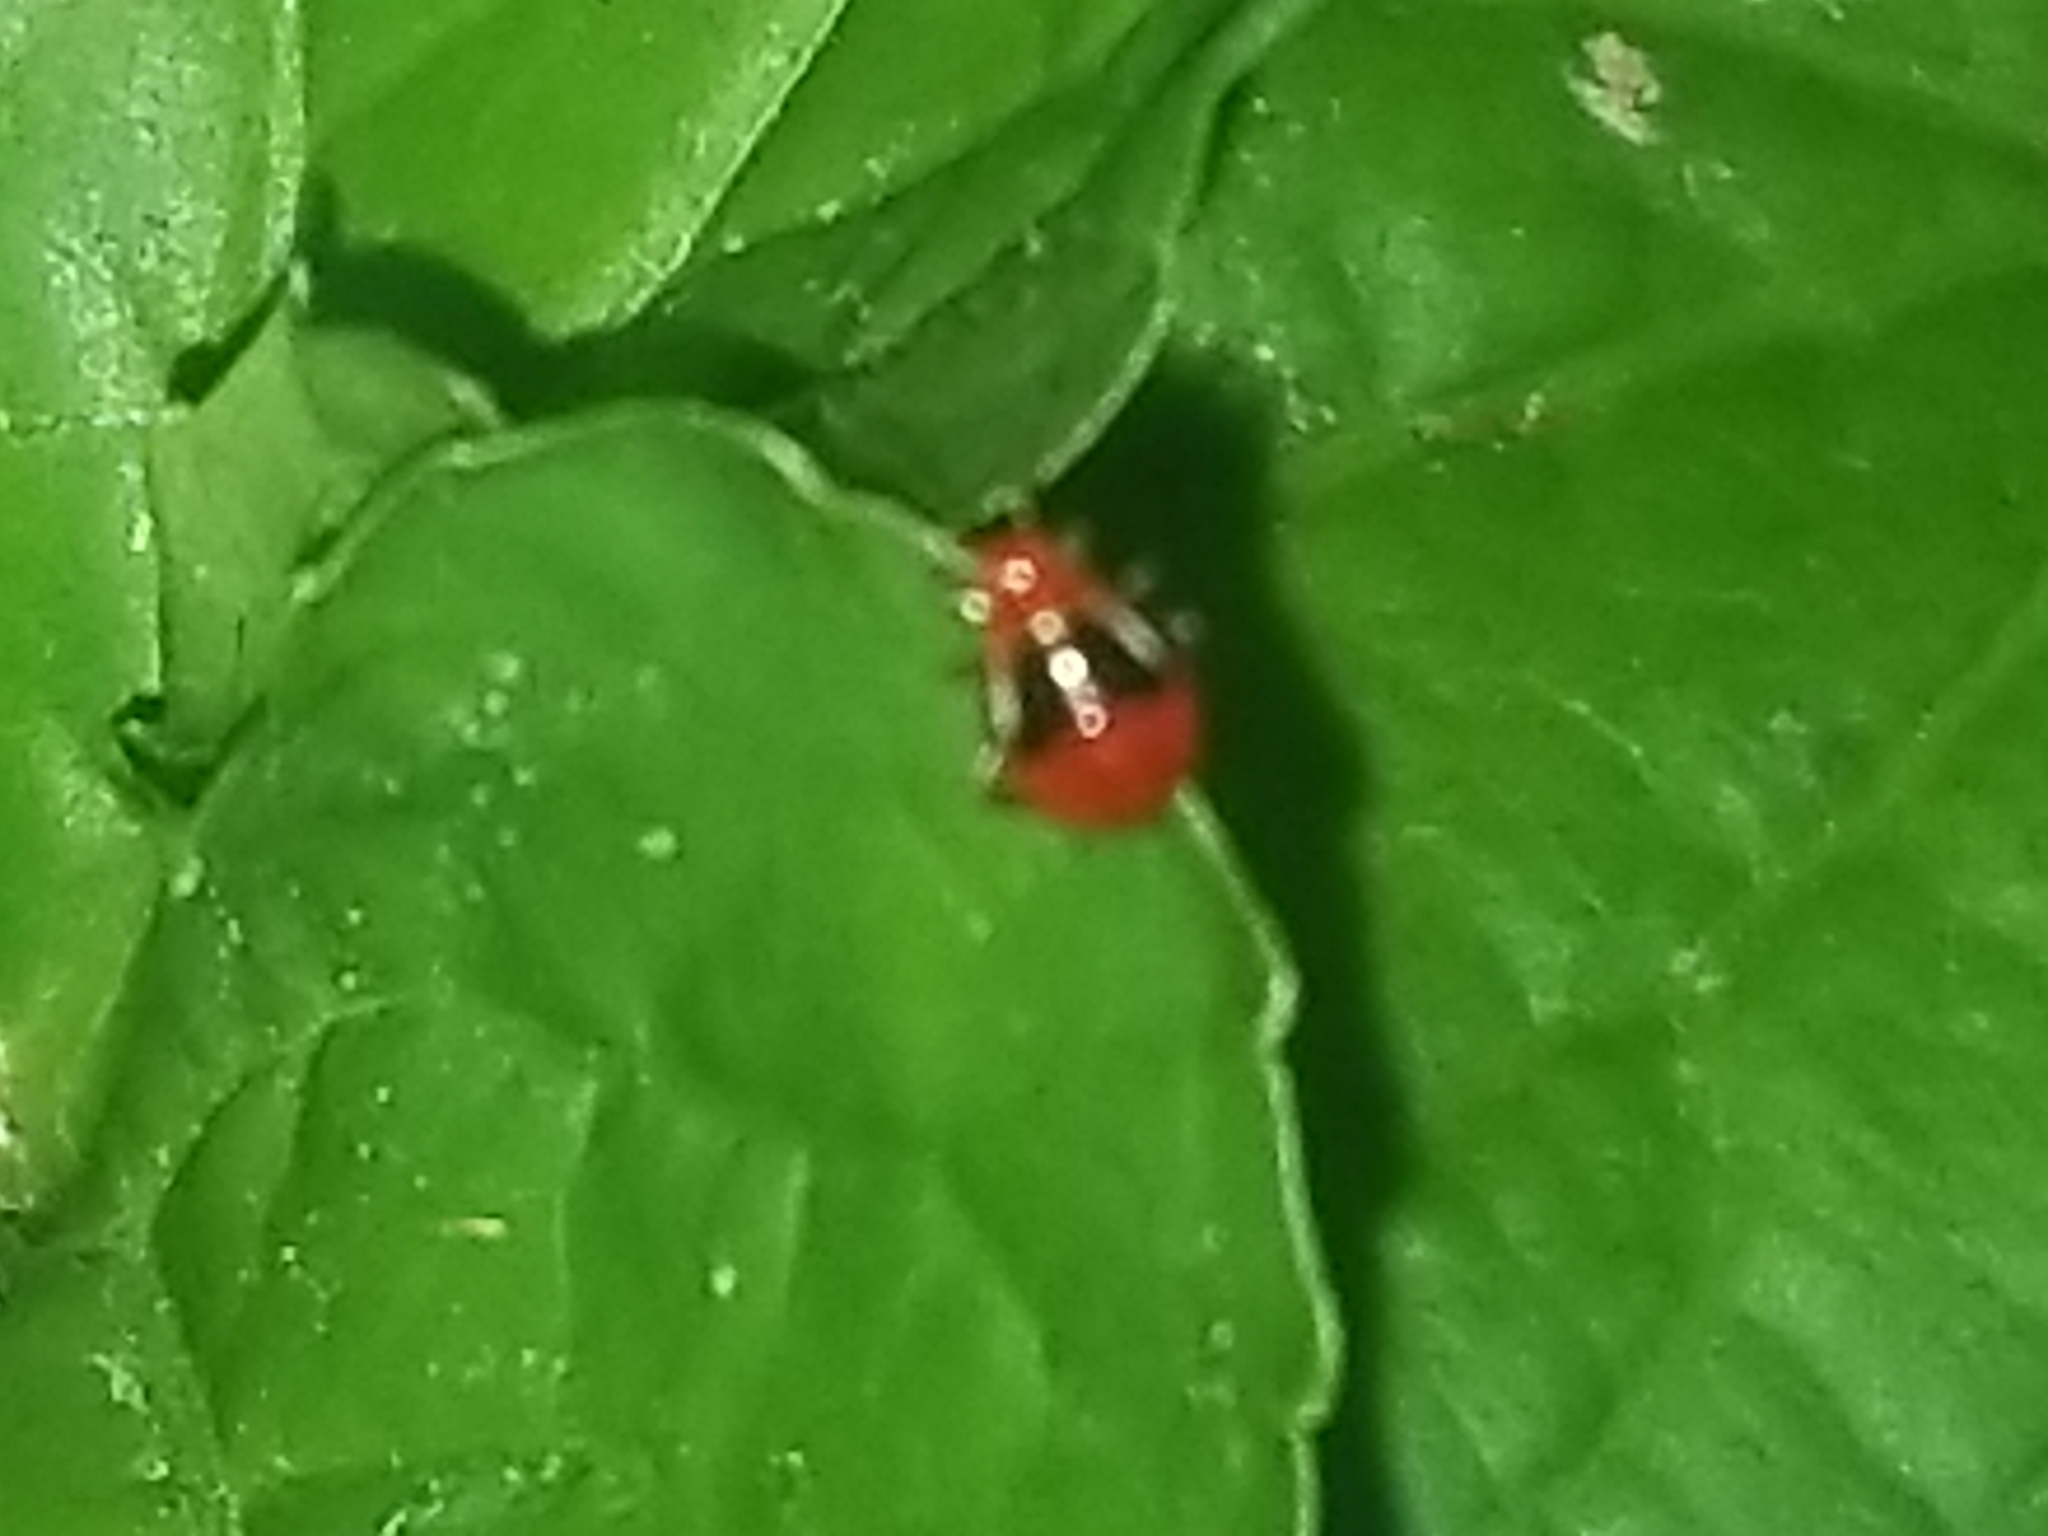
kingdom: Animalia
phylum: Arthropoda
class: Insecta
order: Hemiptera
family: Miridae
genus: Poecilocapsus
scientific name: Poecilocapsus lineatus
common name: Four-lined plant bug
